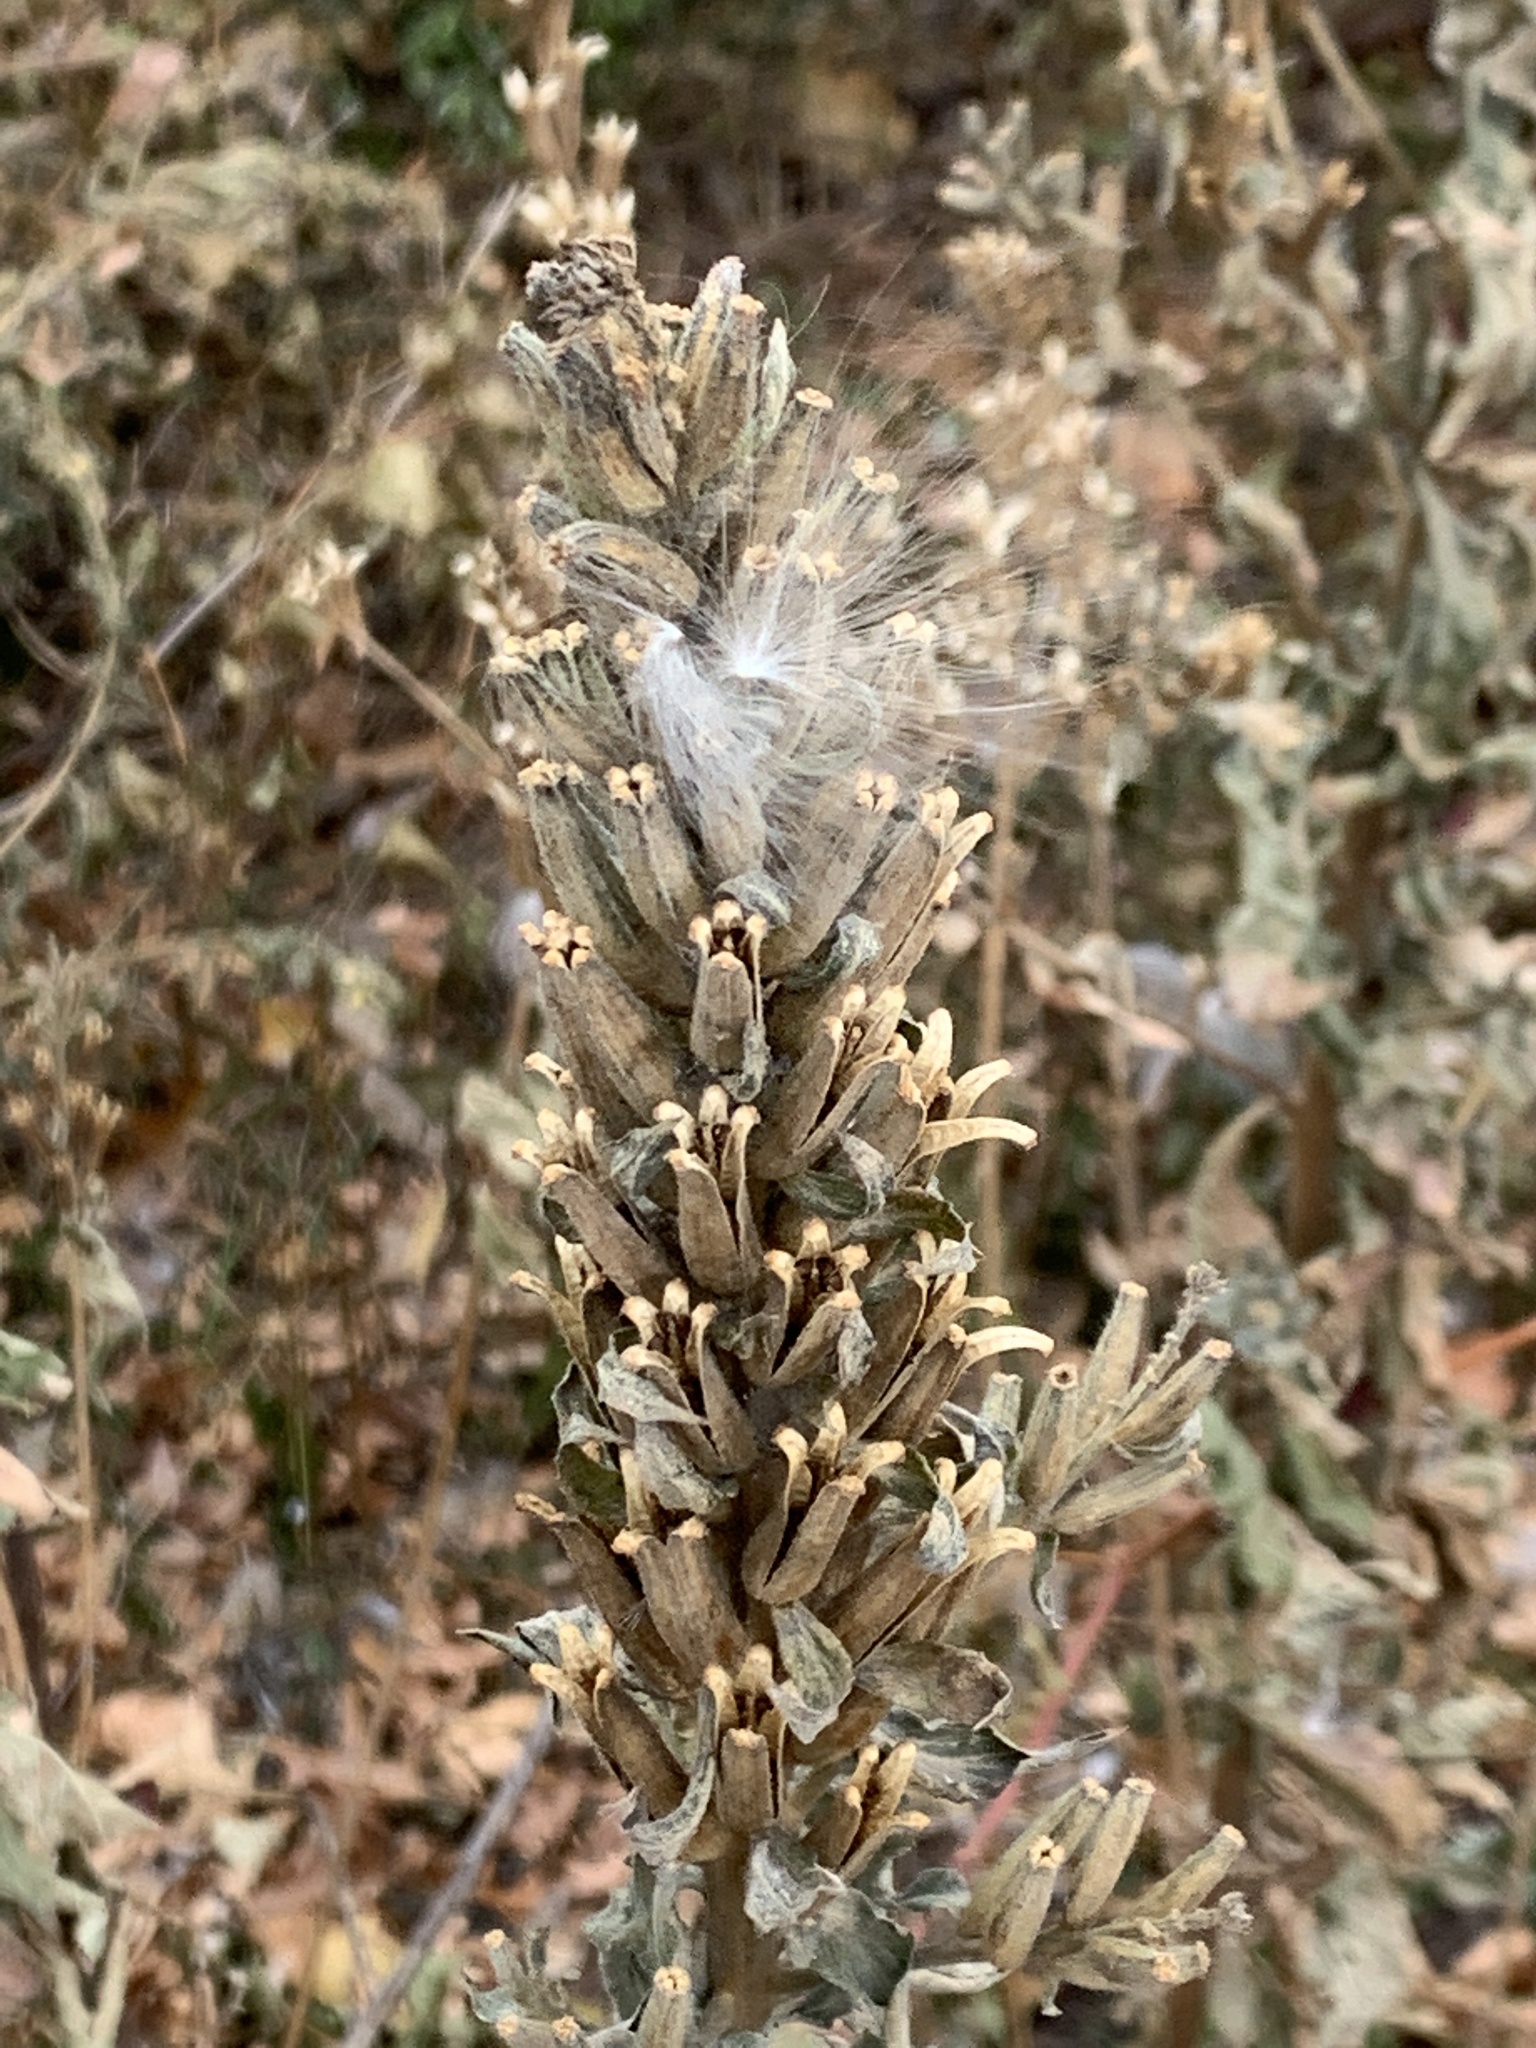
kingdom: Plantae
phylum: Tracheophyta
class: Magnoliopsida
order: Myrtales
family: Onagraceae
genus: Oenothera
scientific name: Oenothera biennis
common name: Common evening-primrose
